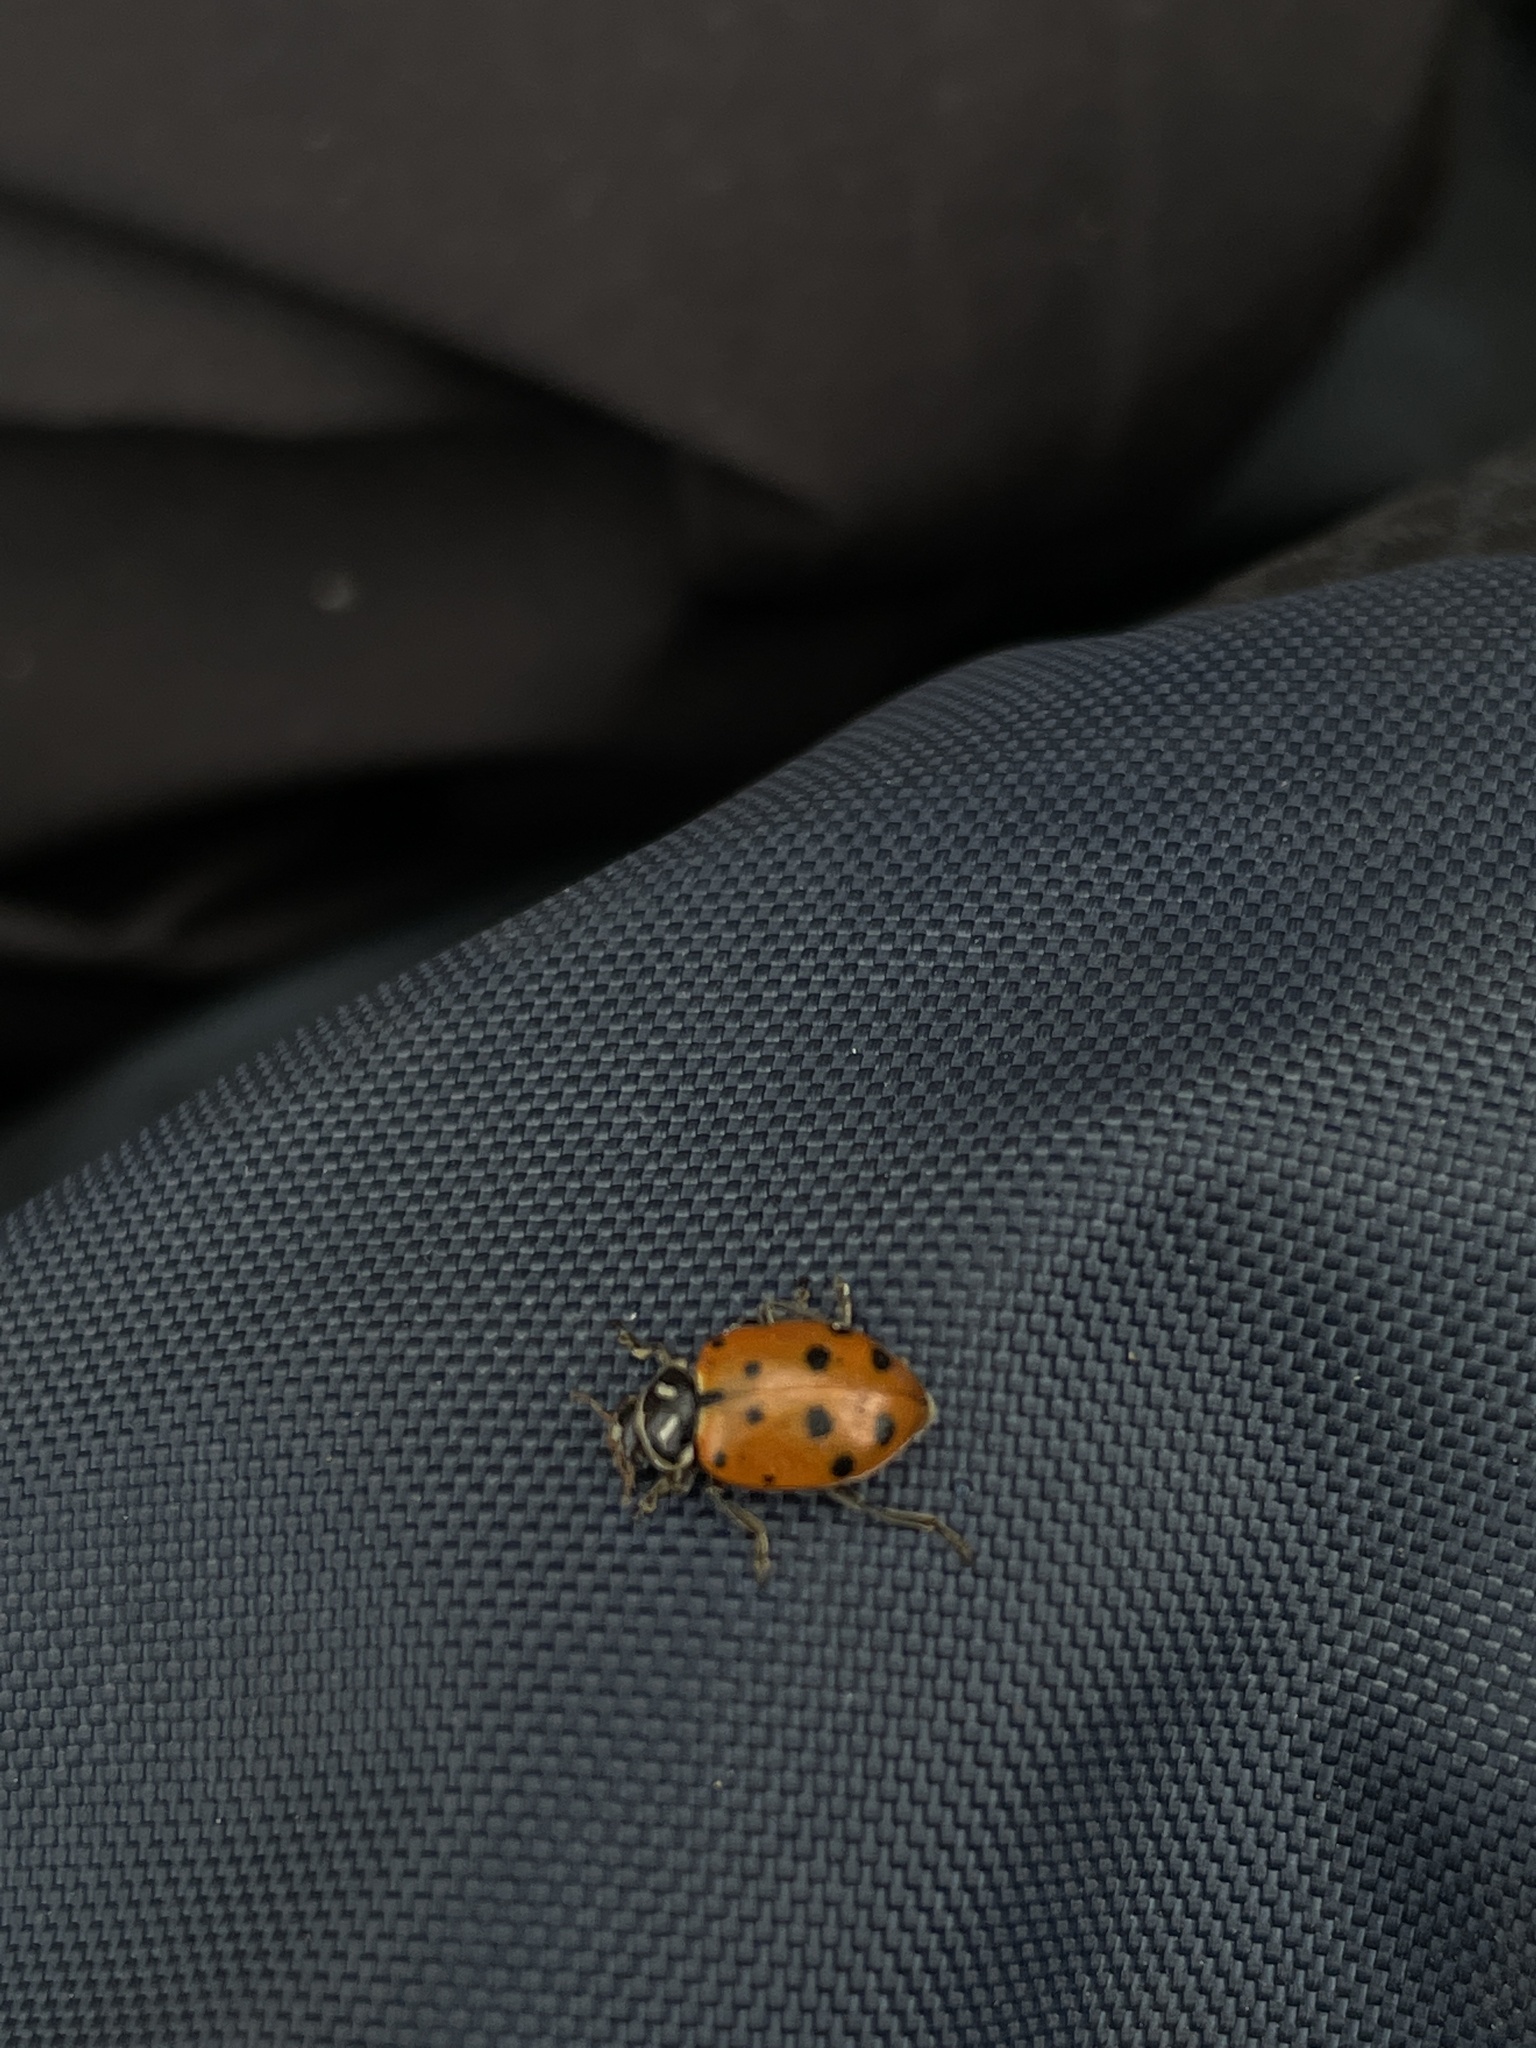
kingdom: Animalia
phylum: Arthropoda
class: Insecta
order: Coleoptera
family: Coccinellidae
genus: Hippodamia
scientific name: Hippodamia convergens
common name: Convergent lady beetle
